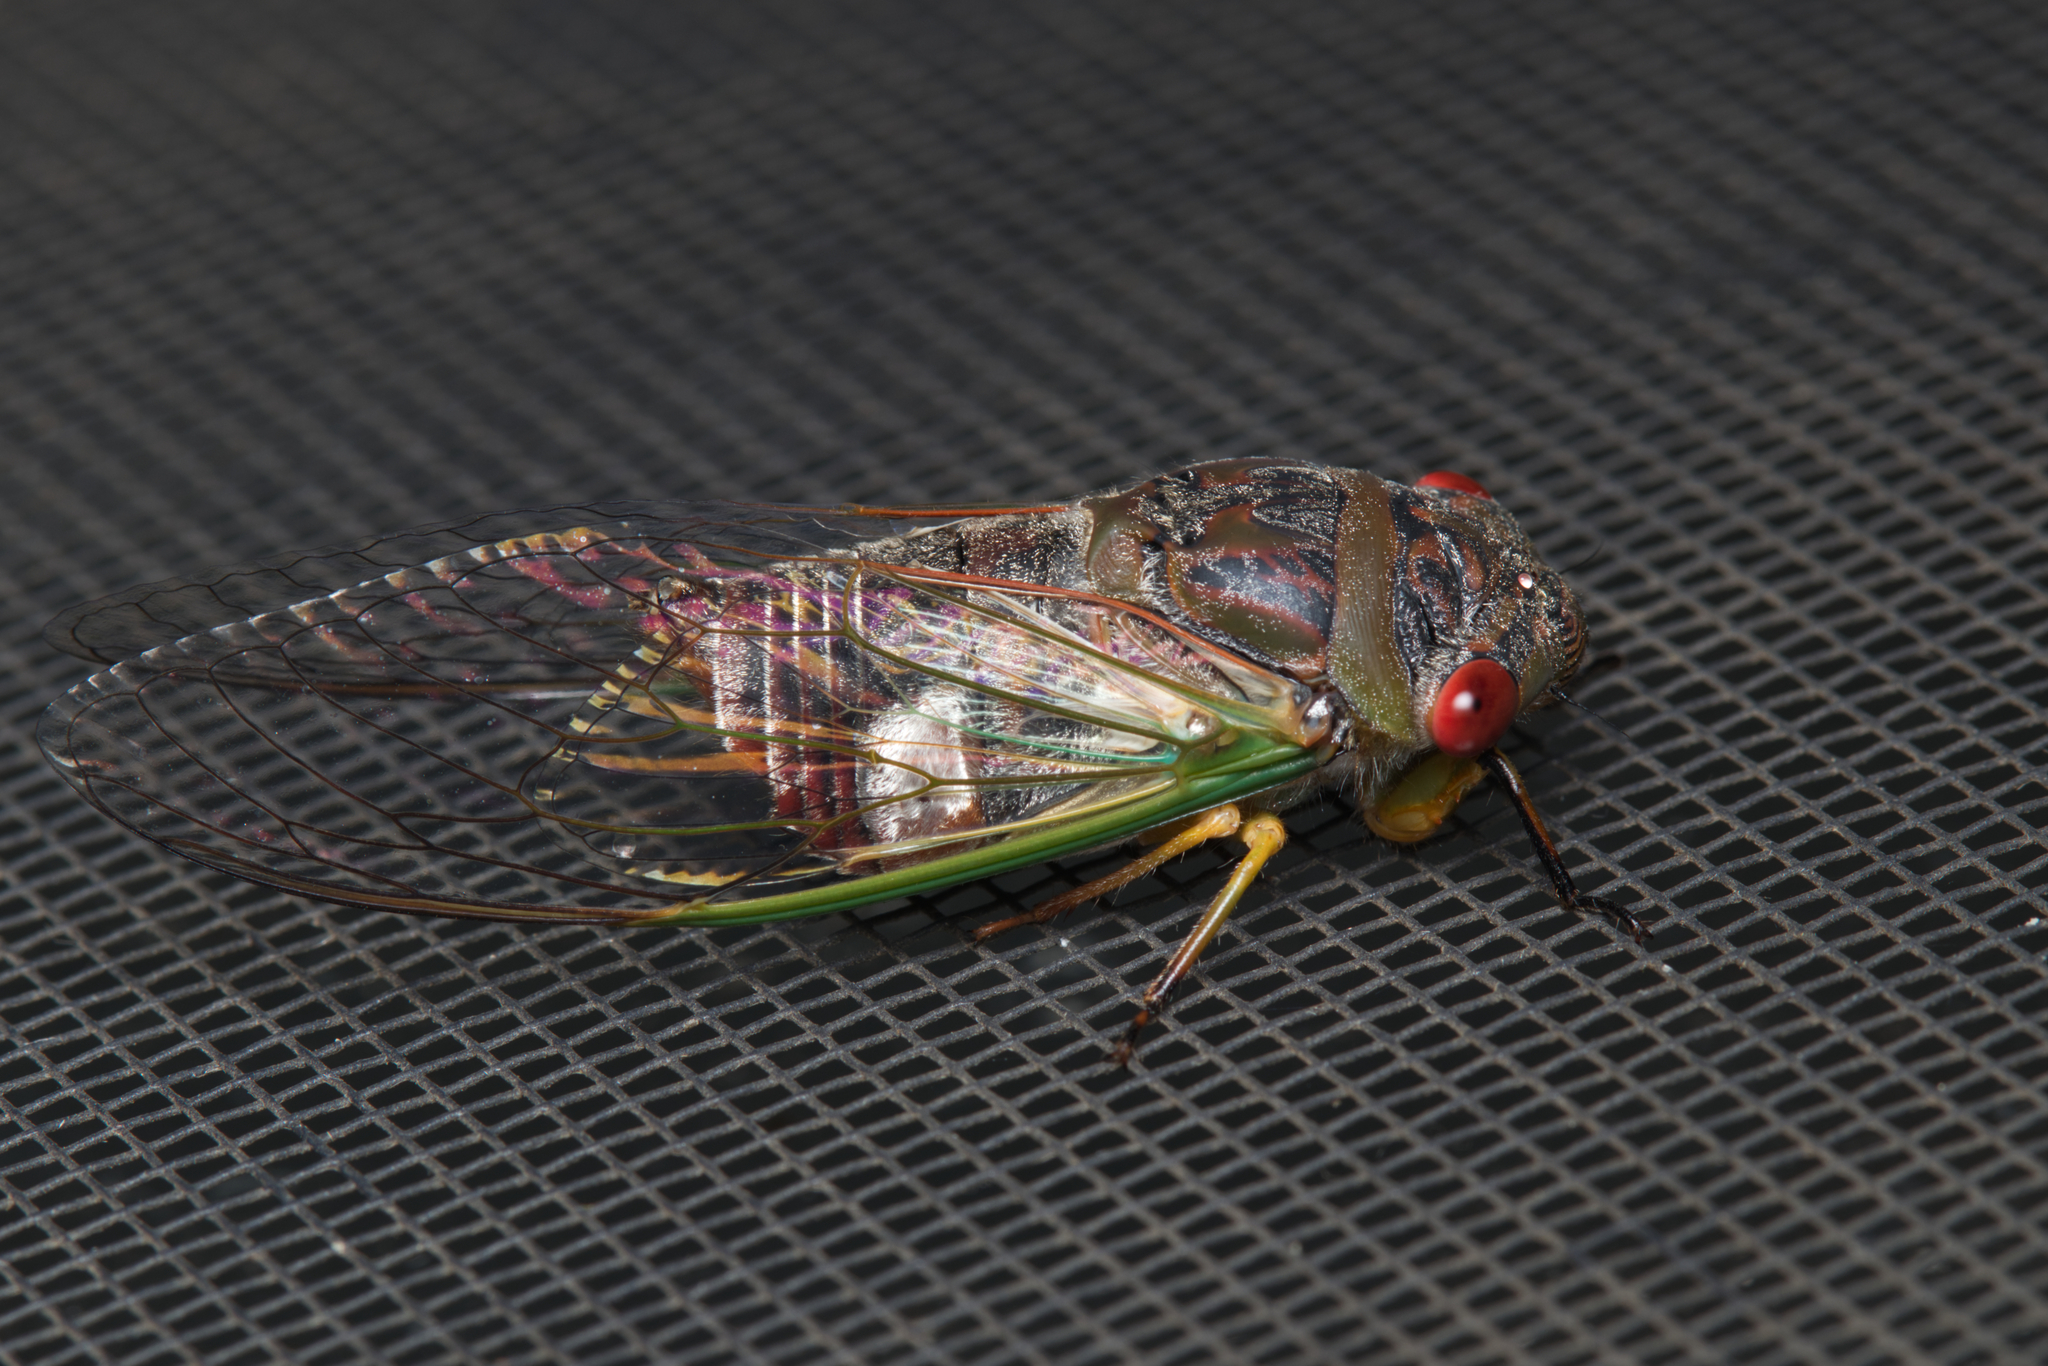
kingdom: Animalia
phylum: Arthropoda
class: Insecta
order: Hemiptera
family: Cicadidae
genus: Psaltoda
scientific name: Psaltoda claripennis
